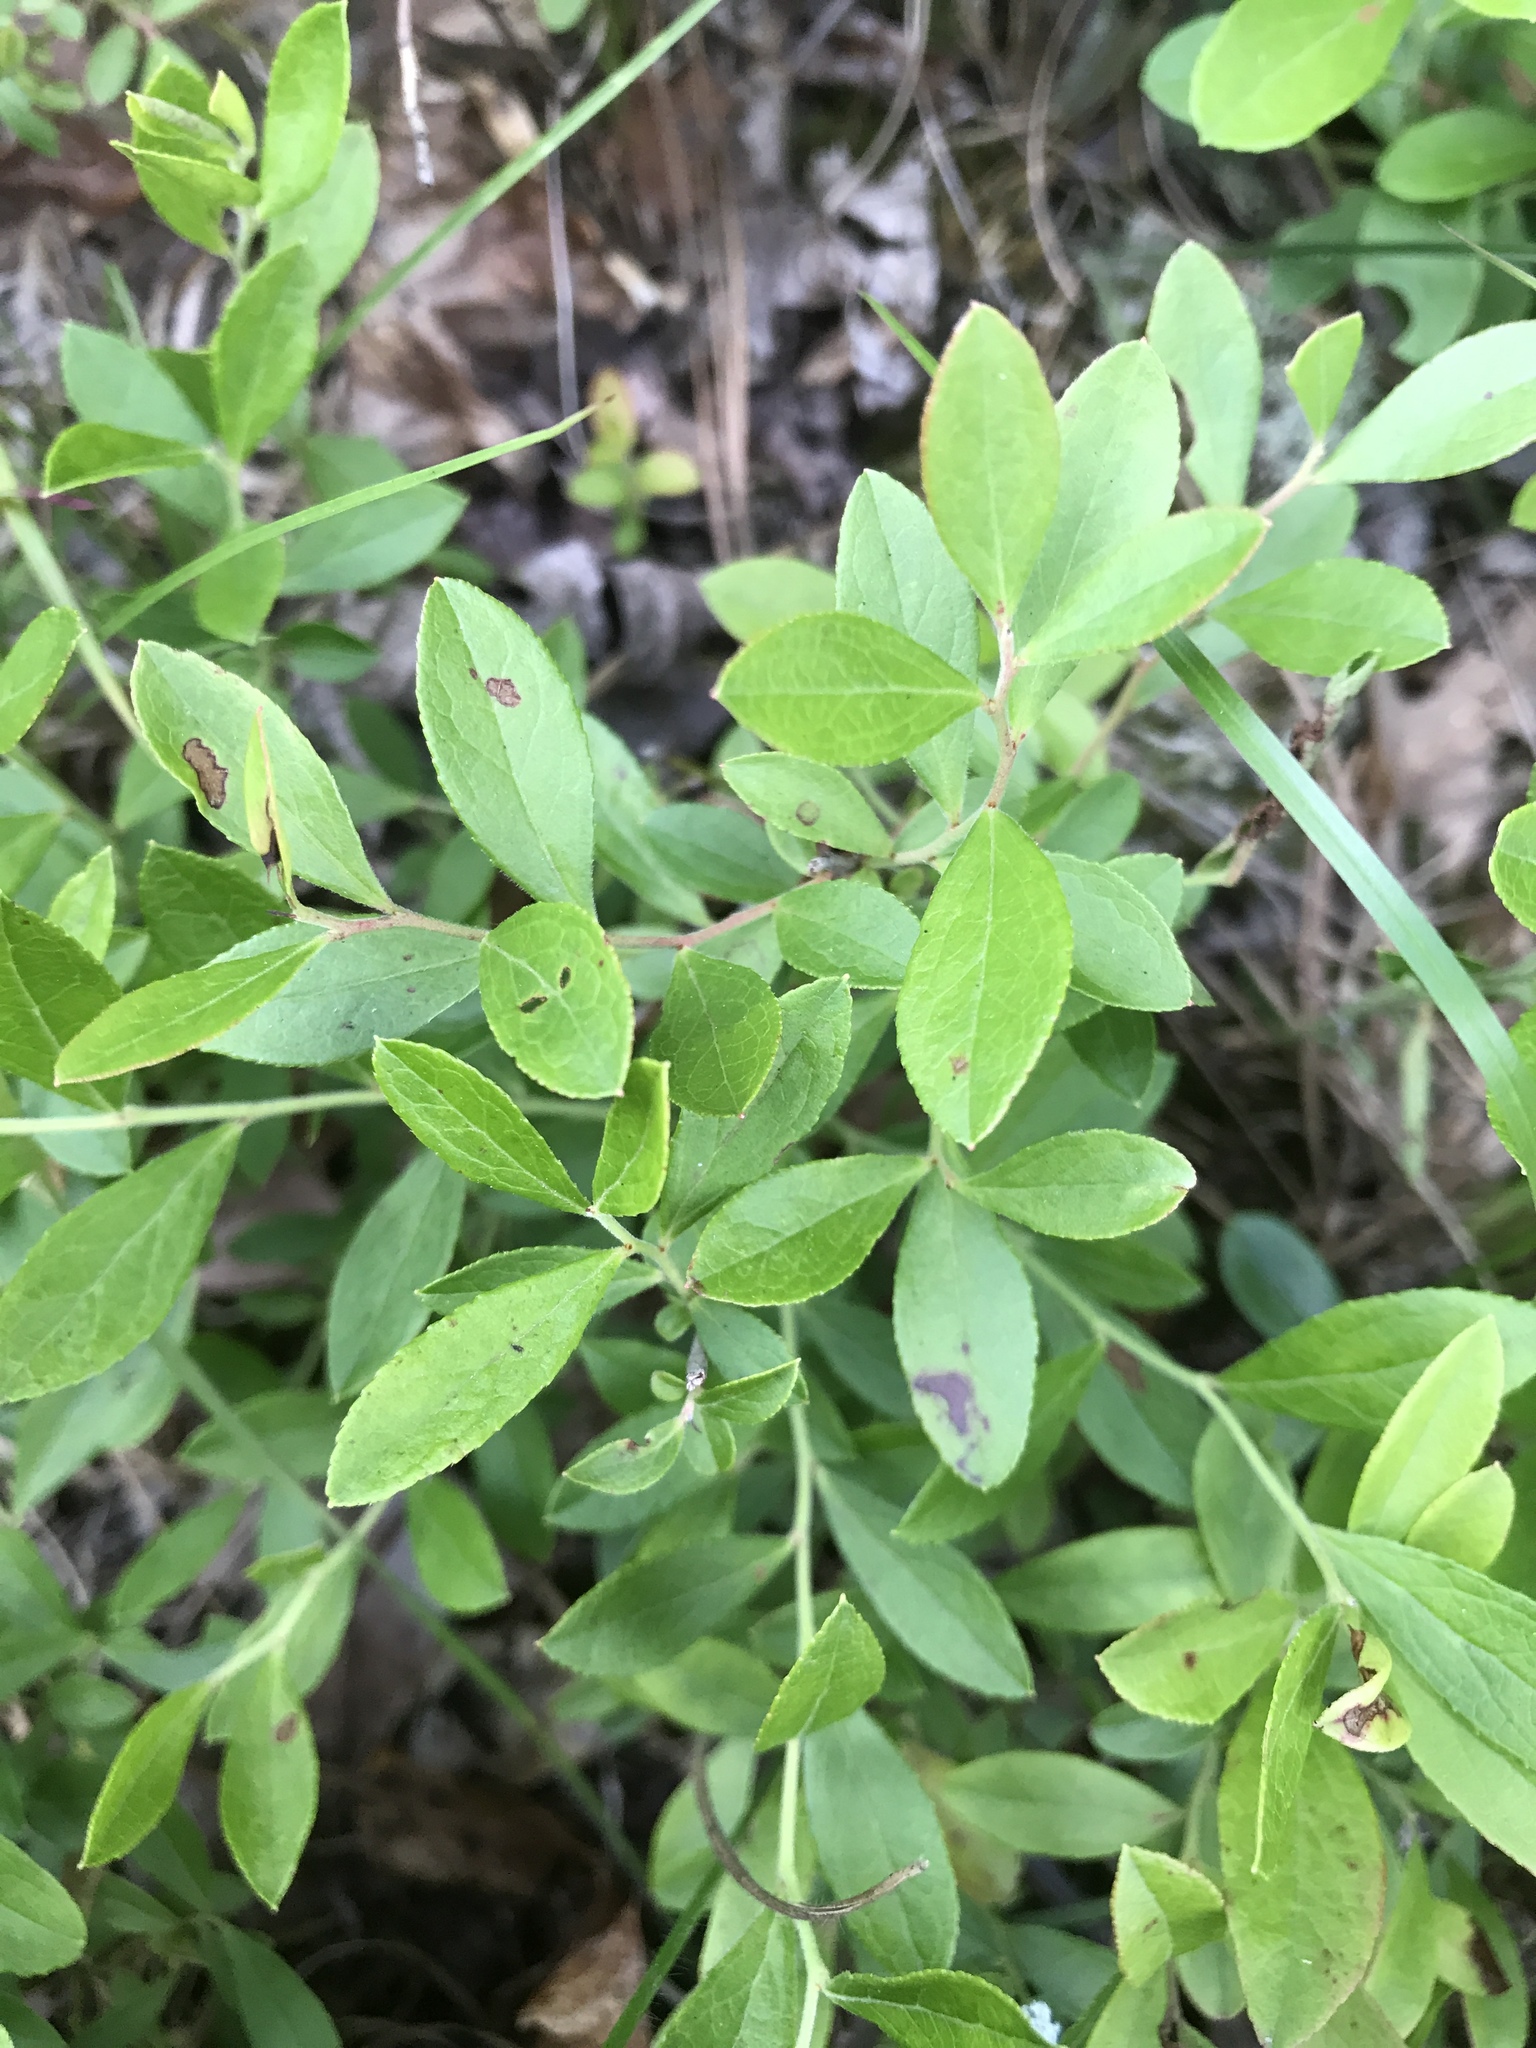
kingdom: Plantae
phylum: Tracheophyta
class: Magnoliopsida
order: Ericales
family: Ericaceae
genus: Vaccinium
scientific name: Vaccinium tenellum
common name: Southern blueberry
